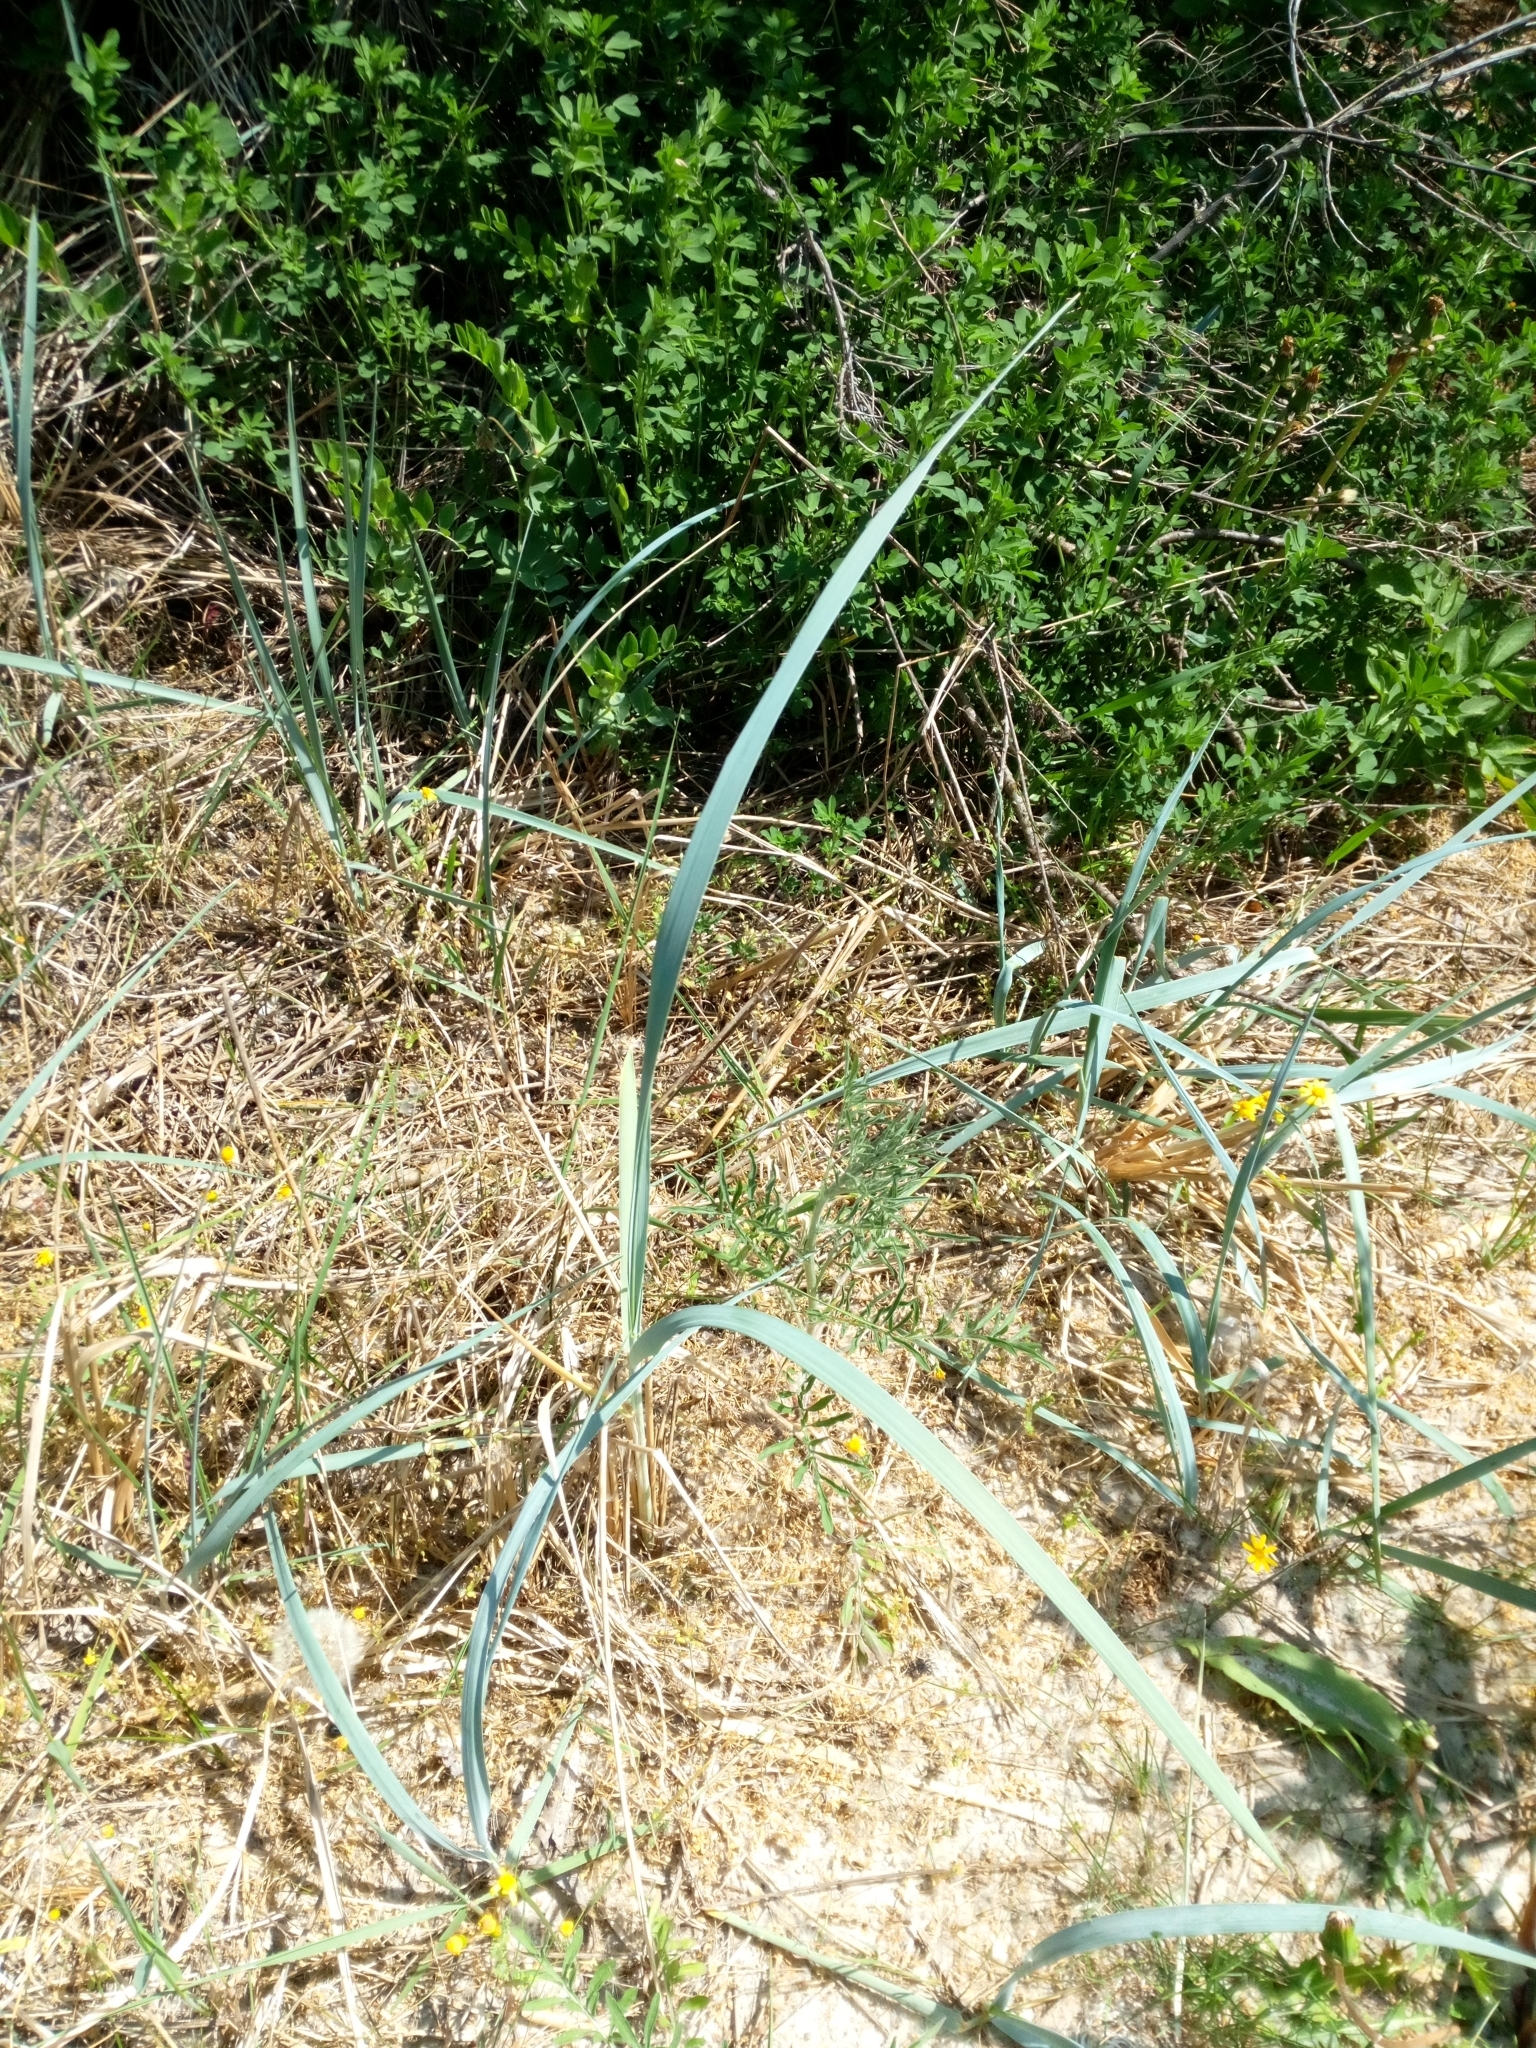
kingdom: Plantae
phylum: Tracheophyta
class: Liliopsida
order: Poales
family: Poaceae
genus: Leymus
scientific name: Leymus arenarius
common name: Lyme-grass
